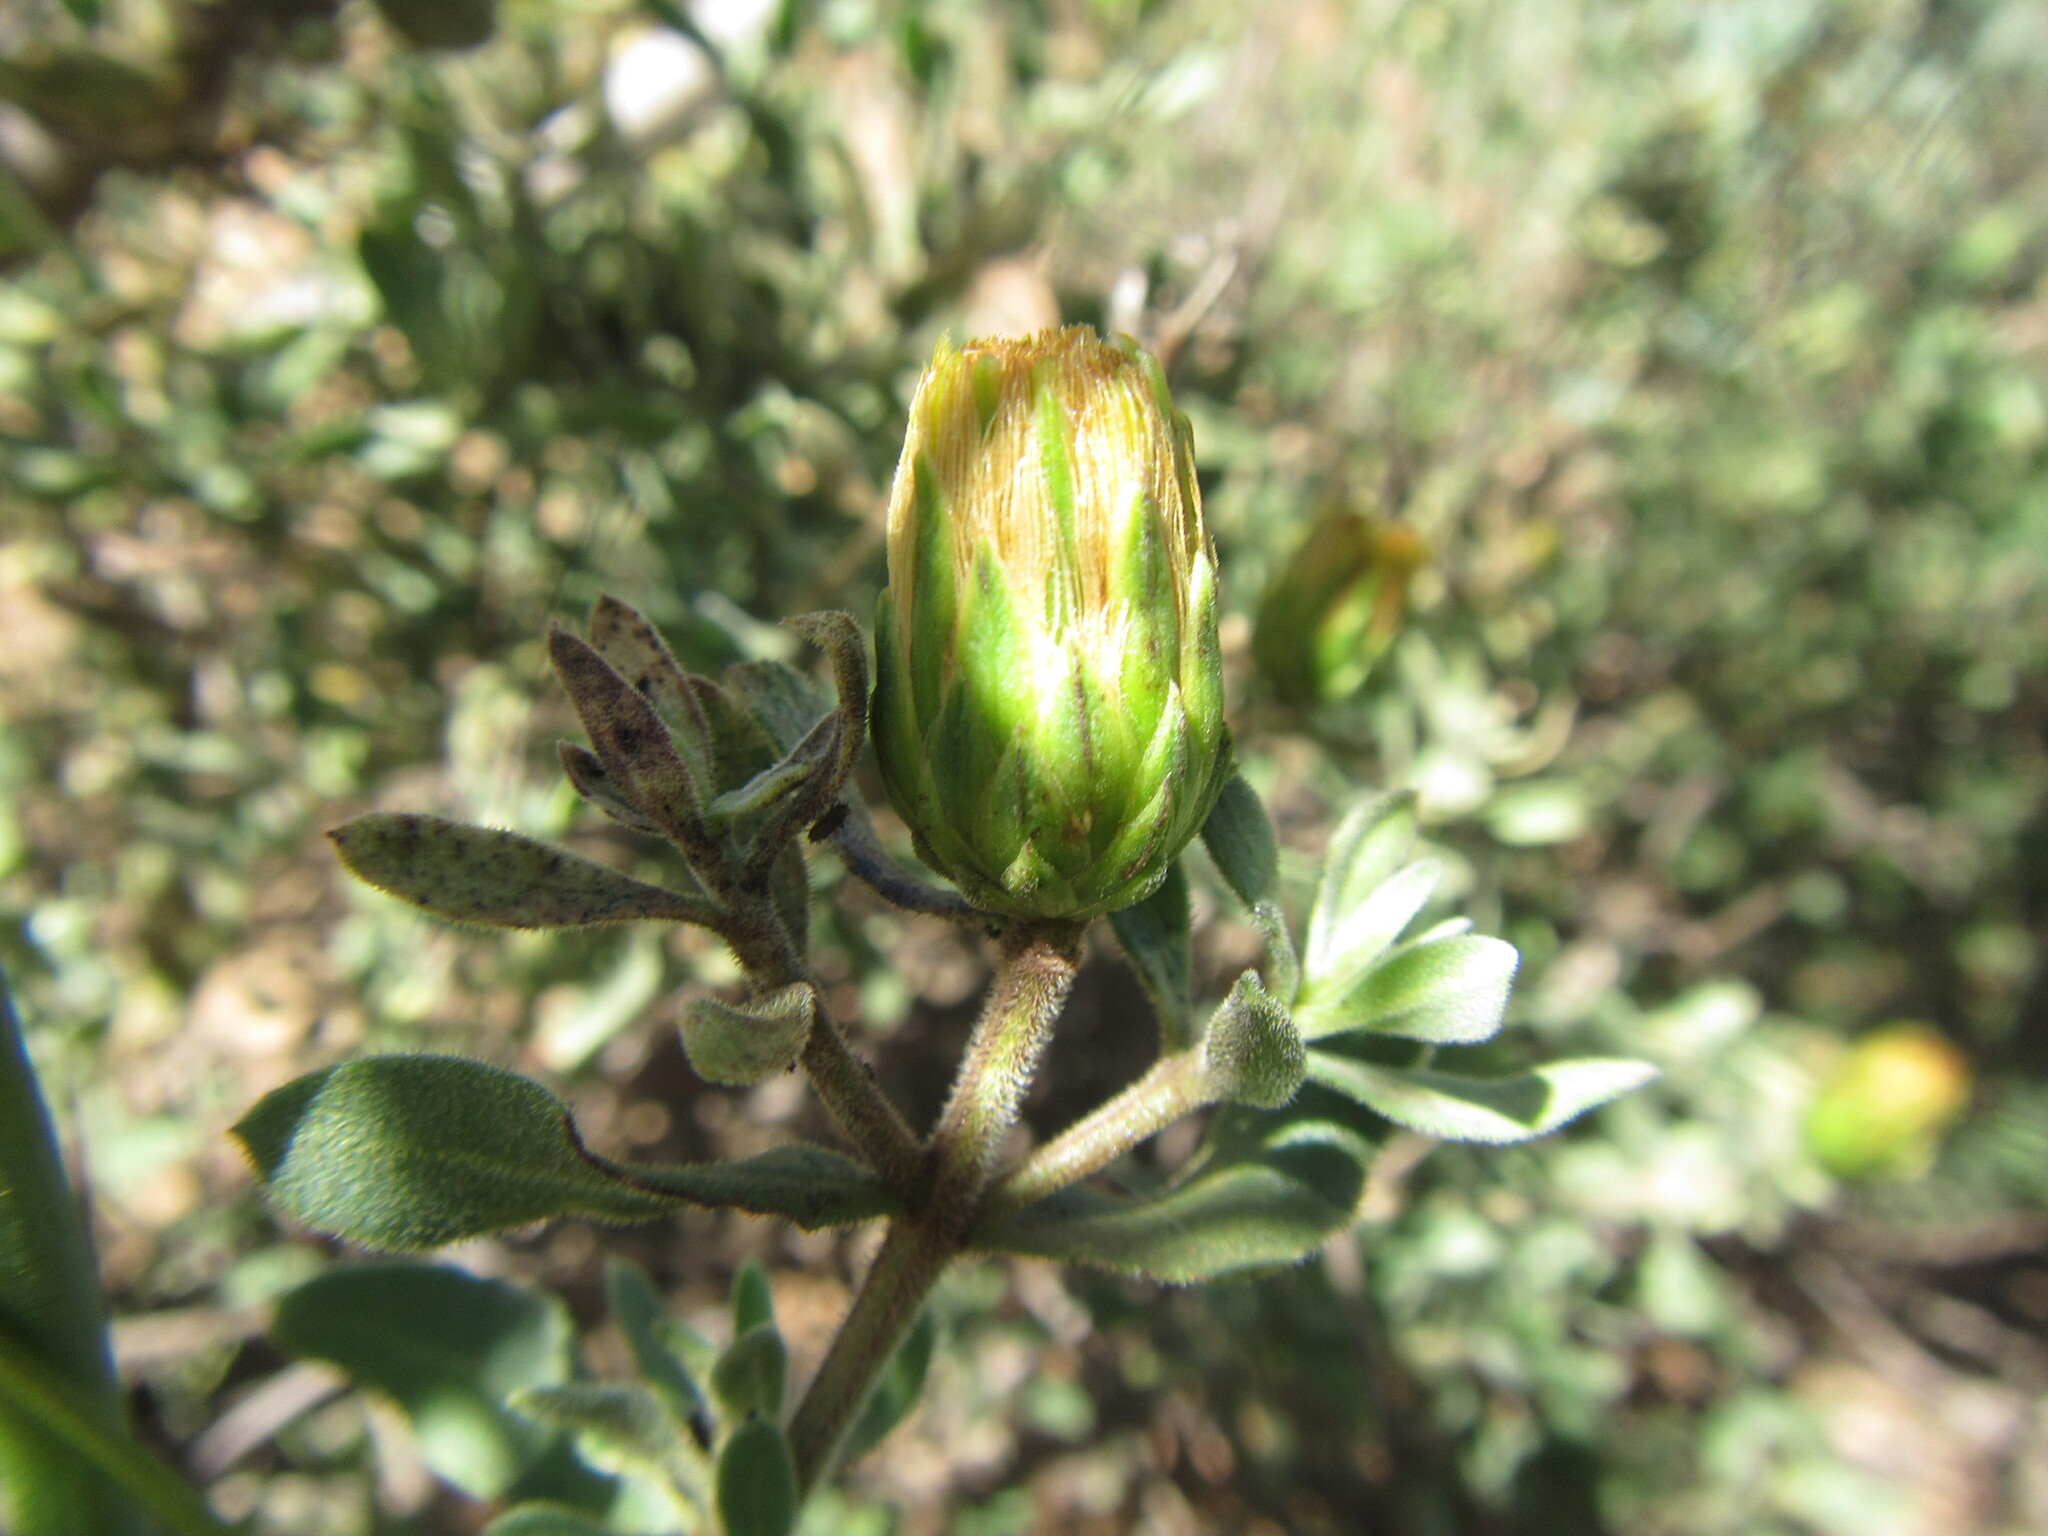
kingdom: Plantae
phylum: Tracheophyta
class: Magnoliopsida
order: Asterales
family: Asteraceae
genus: Pteronia
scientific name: Pteronia utilis
